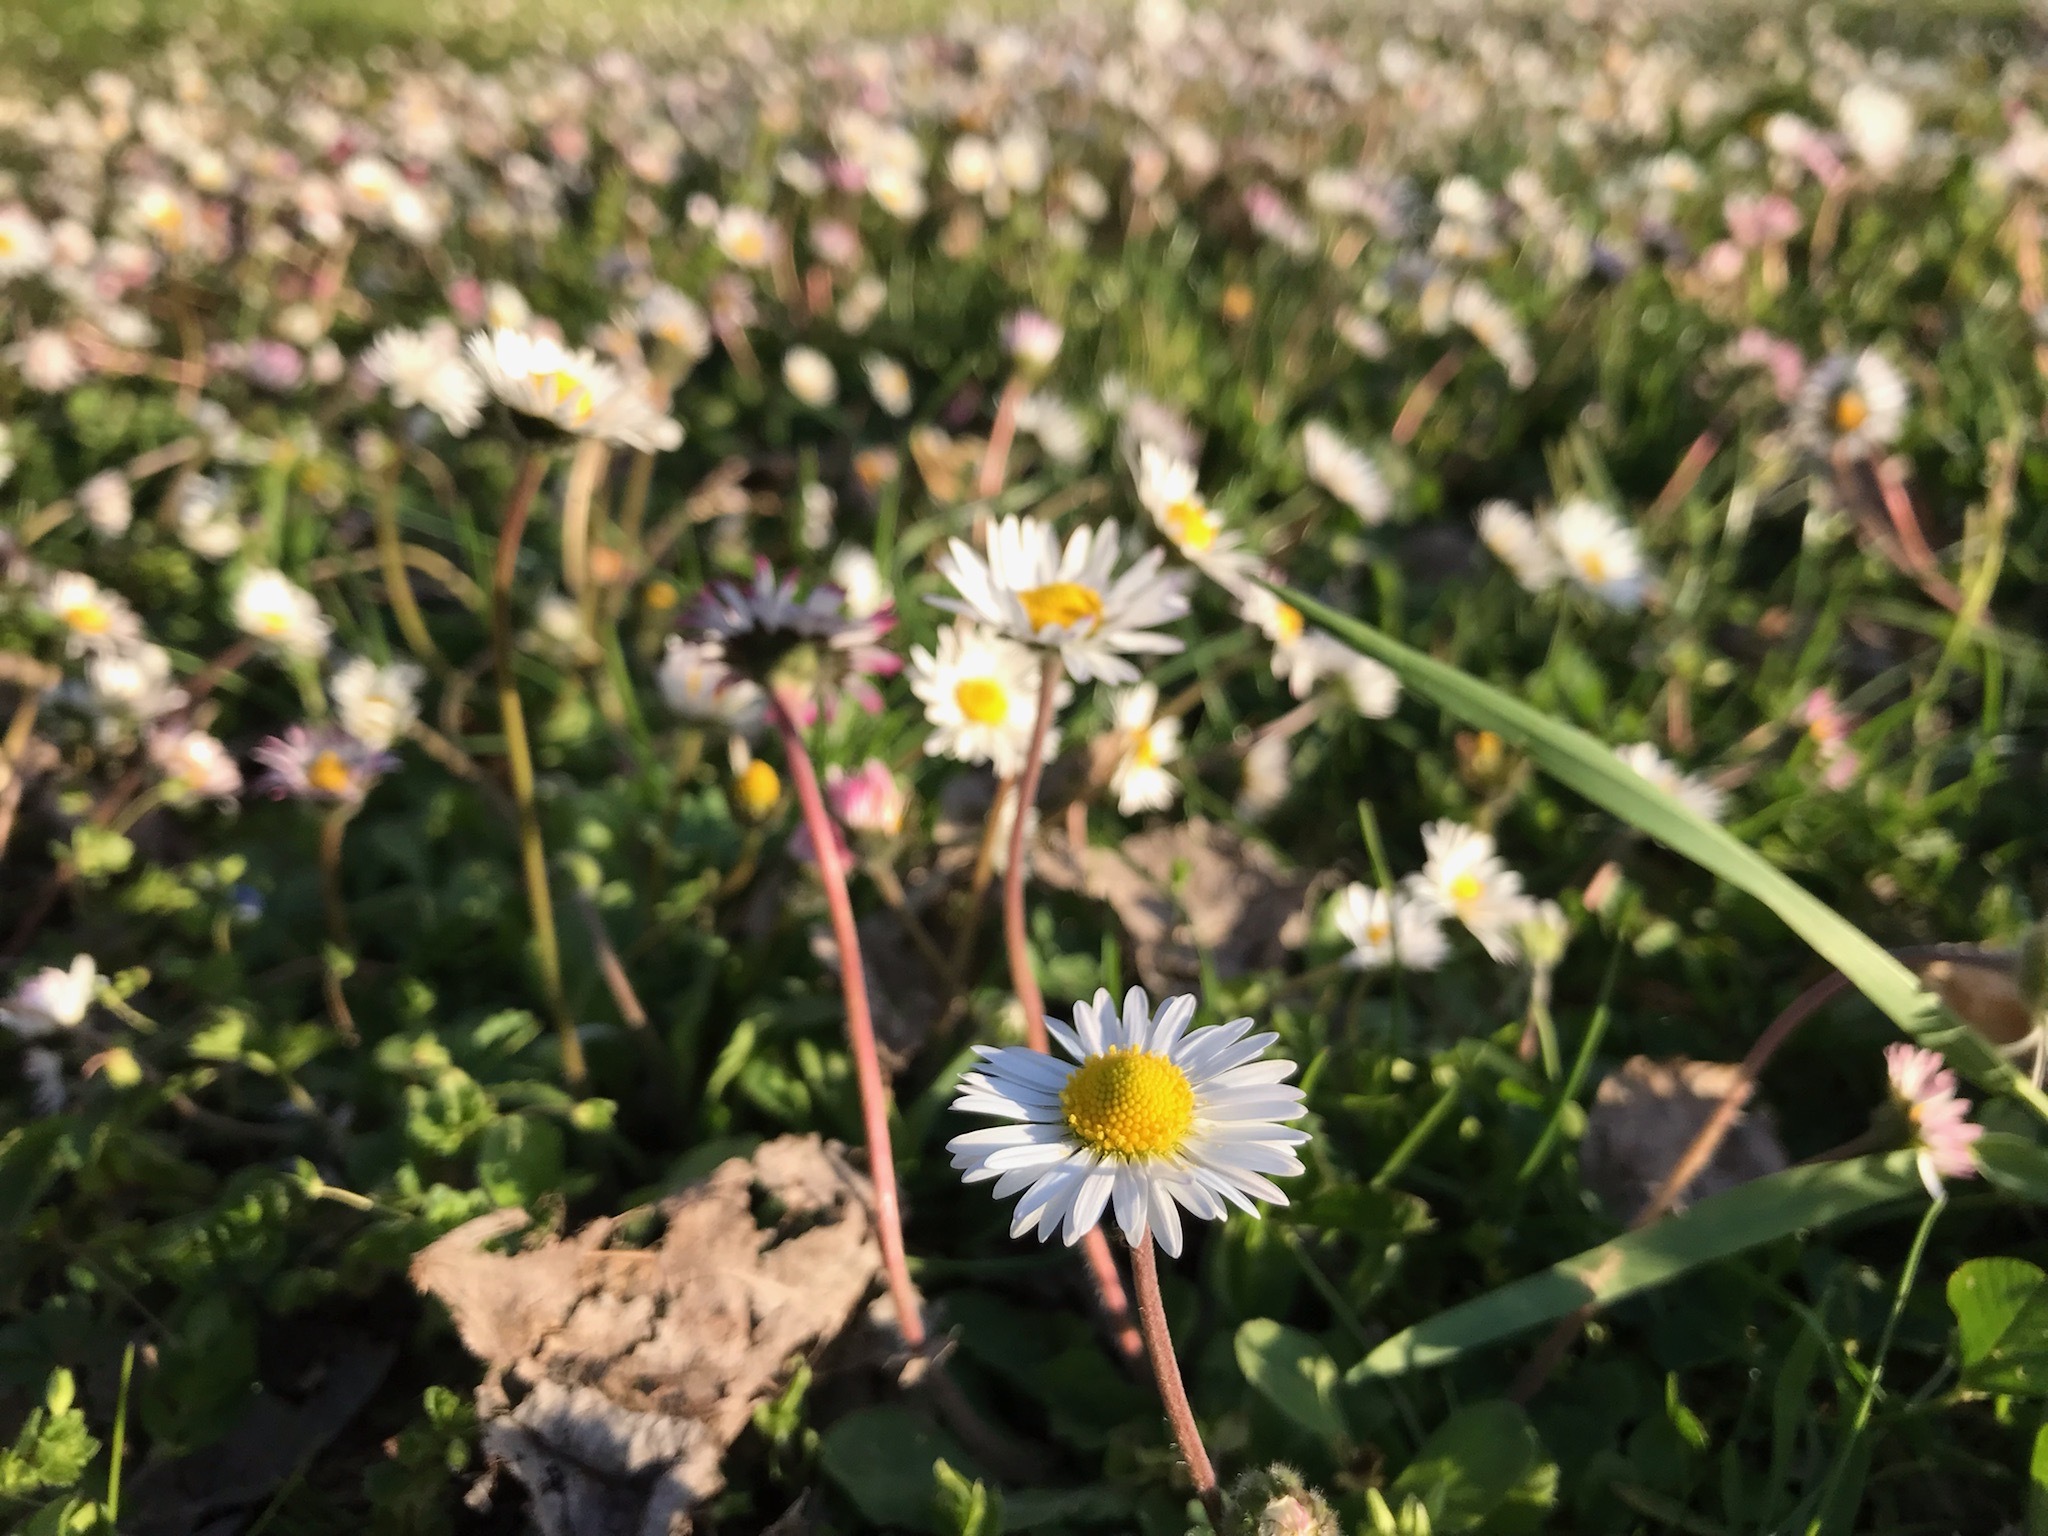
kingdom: Plantae
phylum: Tracheophyta
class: Magnoliopsida
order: Asterales
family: Asteraceae
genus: Bellis
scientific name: Bellis perennis
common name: Lawndaisy
